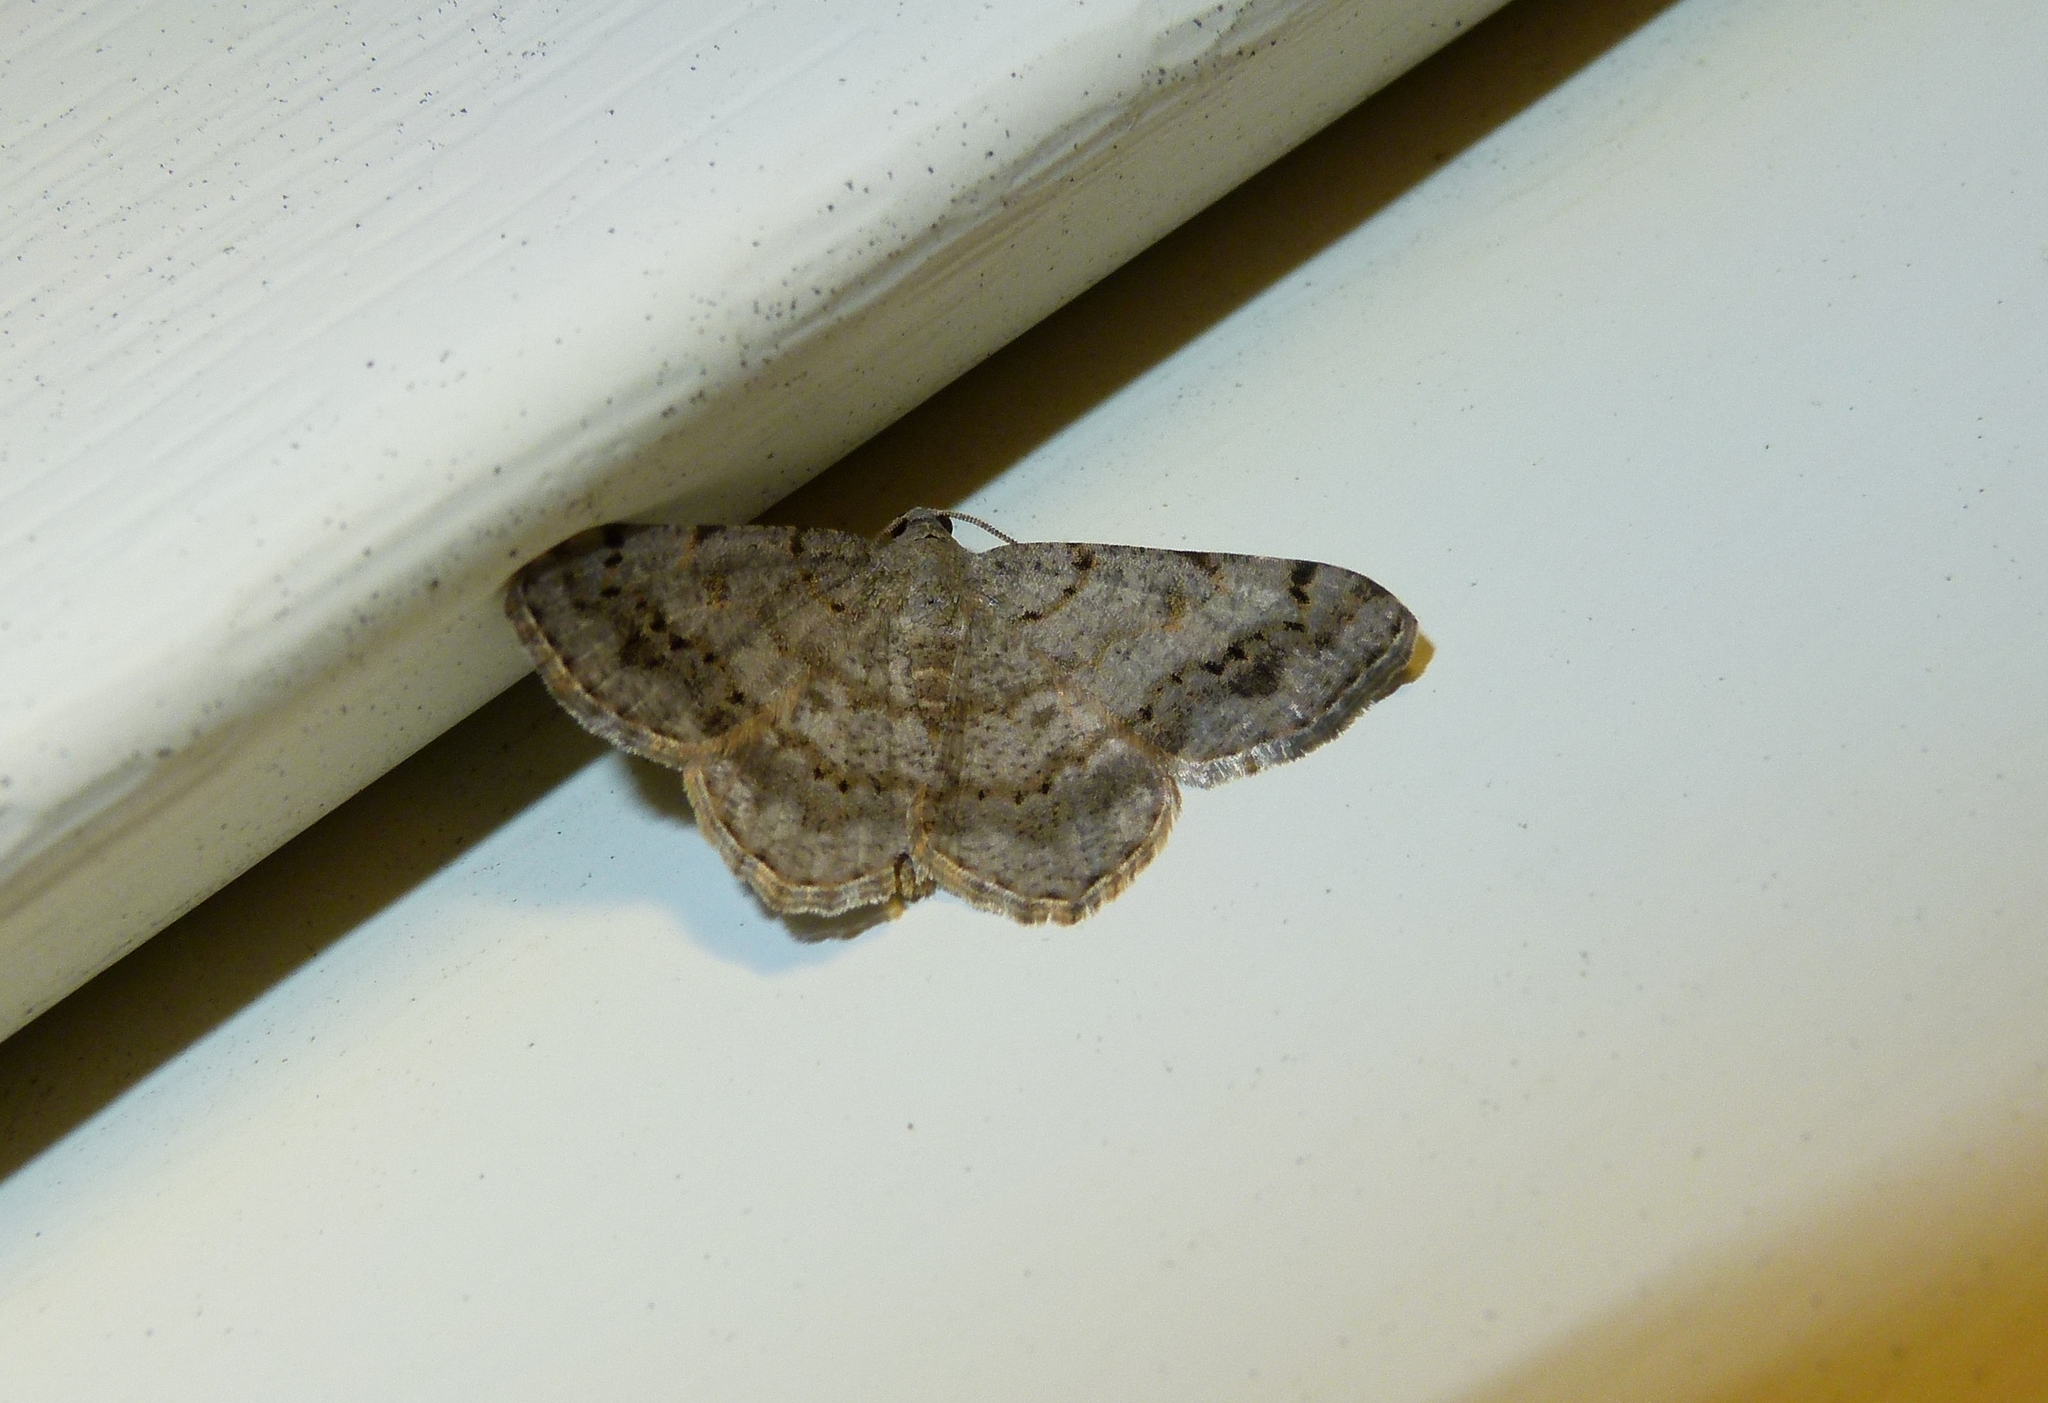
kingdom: Animalia
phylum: Arthropoda
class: Insecta
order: Lepidoptera
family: Geometridae
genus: Digrammia
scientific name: Digrammia ocellinata
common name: Faint-spotted angle
